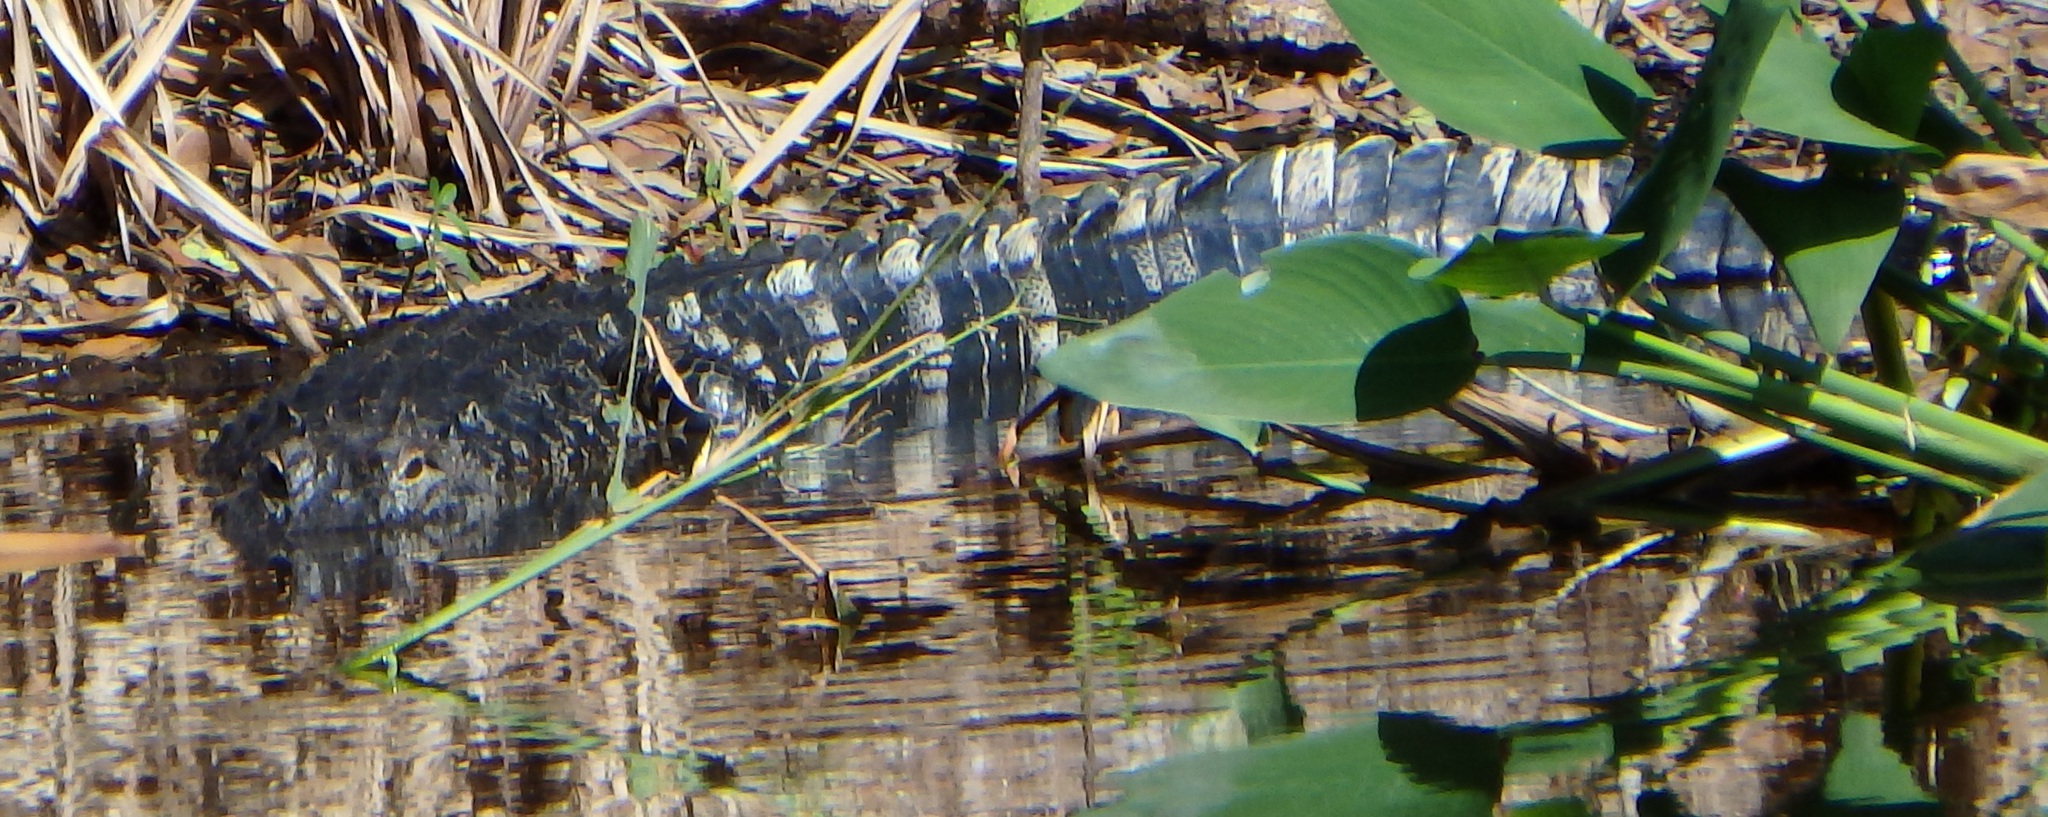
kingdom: Animalia
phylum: Chordata
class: Crocodylia
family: Alligatoridae
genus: Alligator
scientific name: Alligator mississippiensis
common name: American alligator
